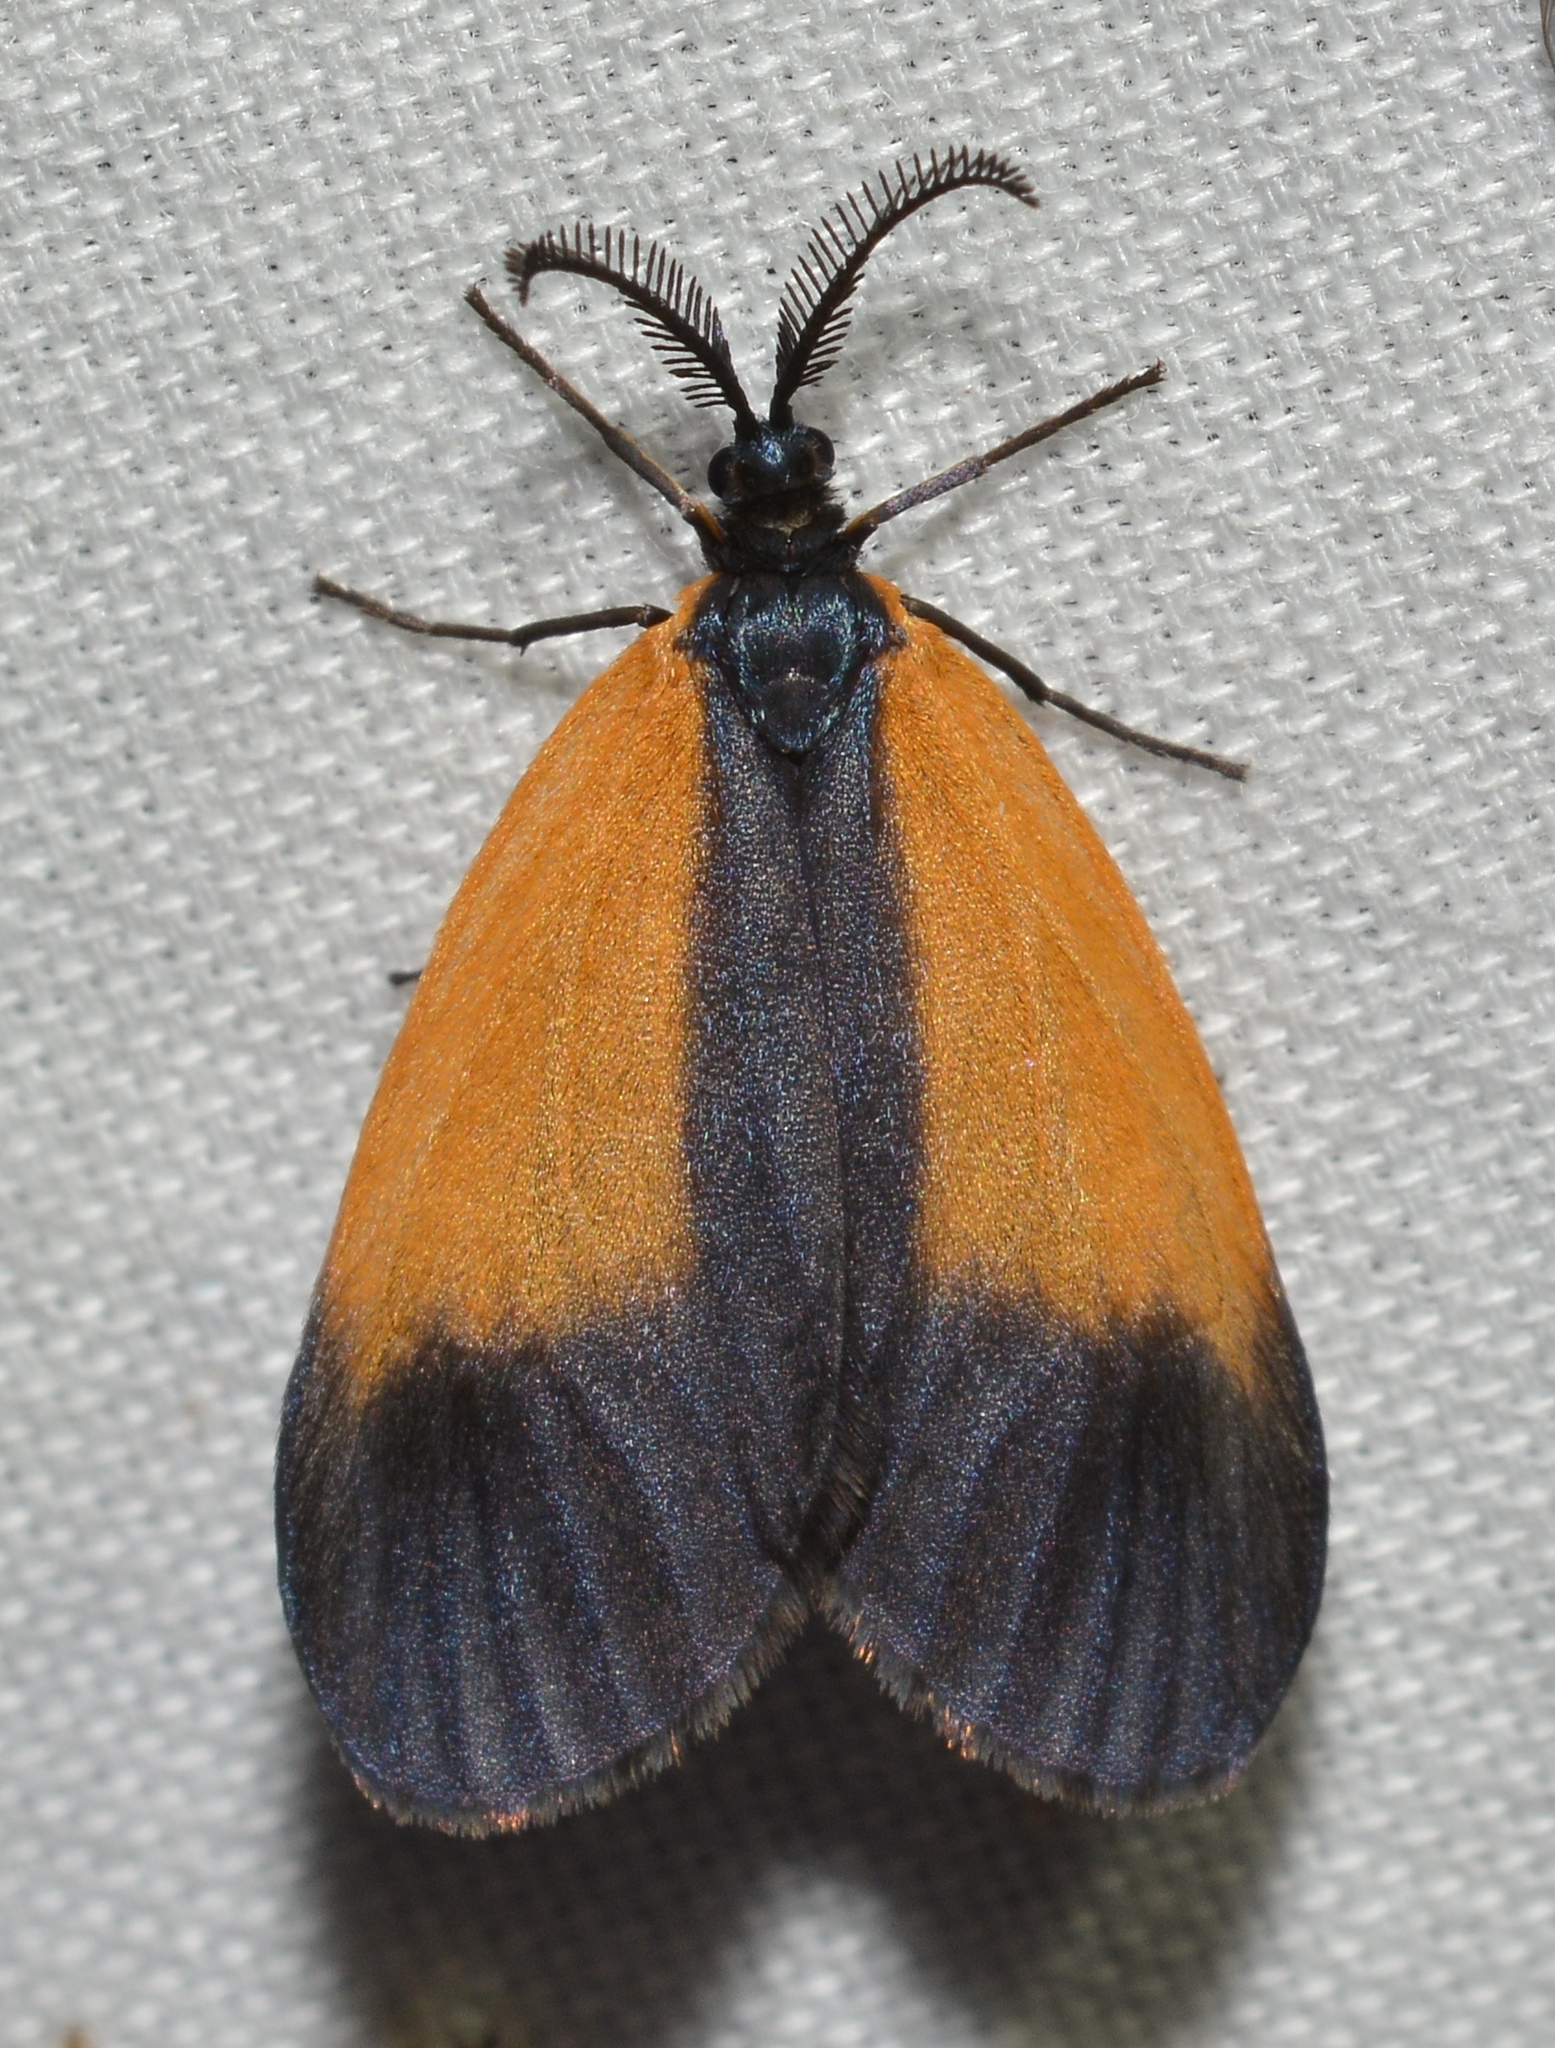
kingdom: Animalia
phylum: Arthropoda
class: Insecta
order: Lepidoptera
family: Zygaenidae
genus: Malthaca
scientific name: Malthaca dimidiata
